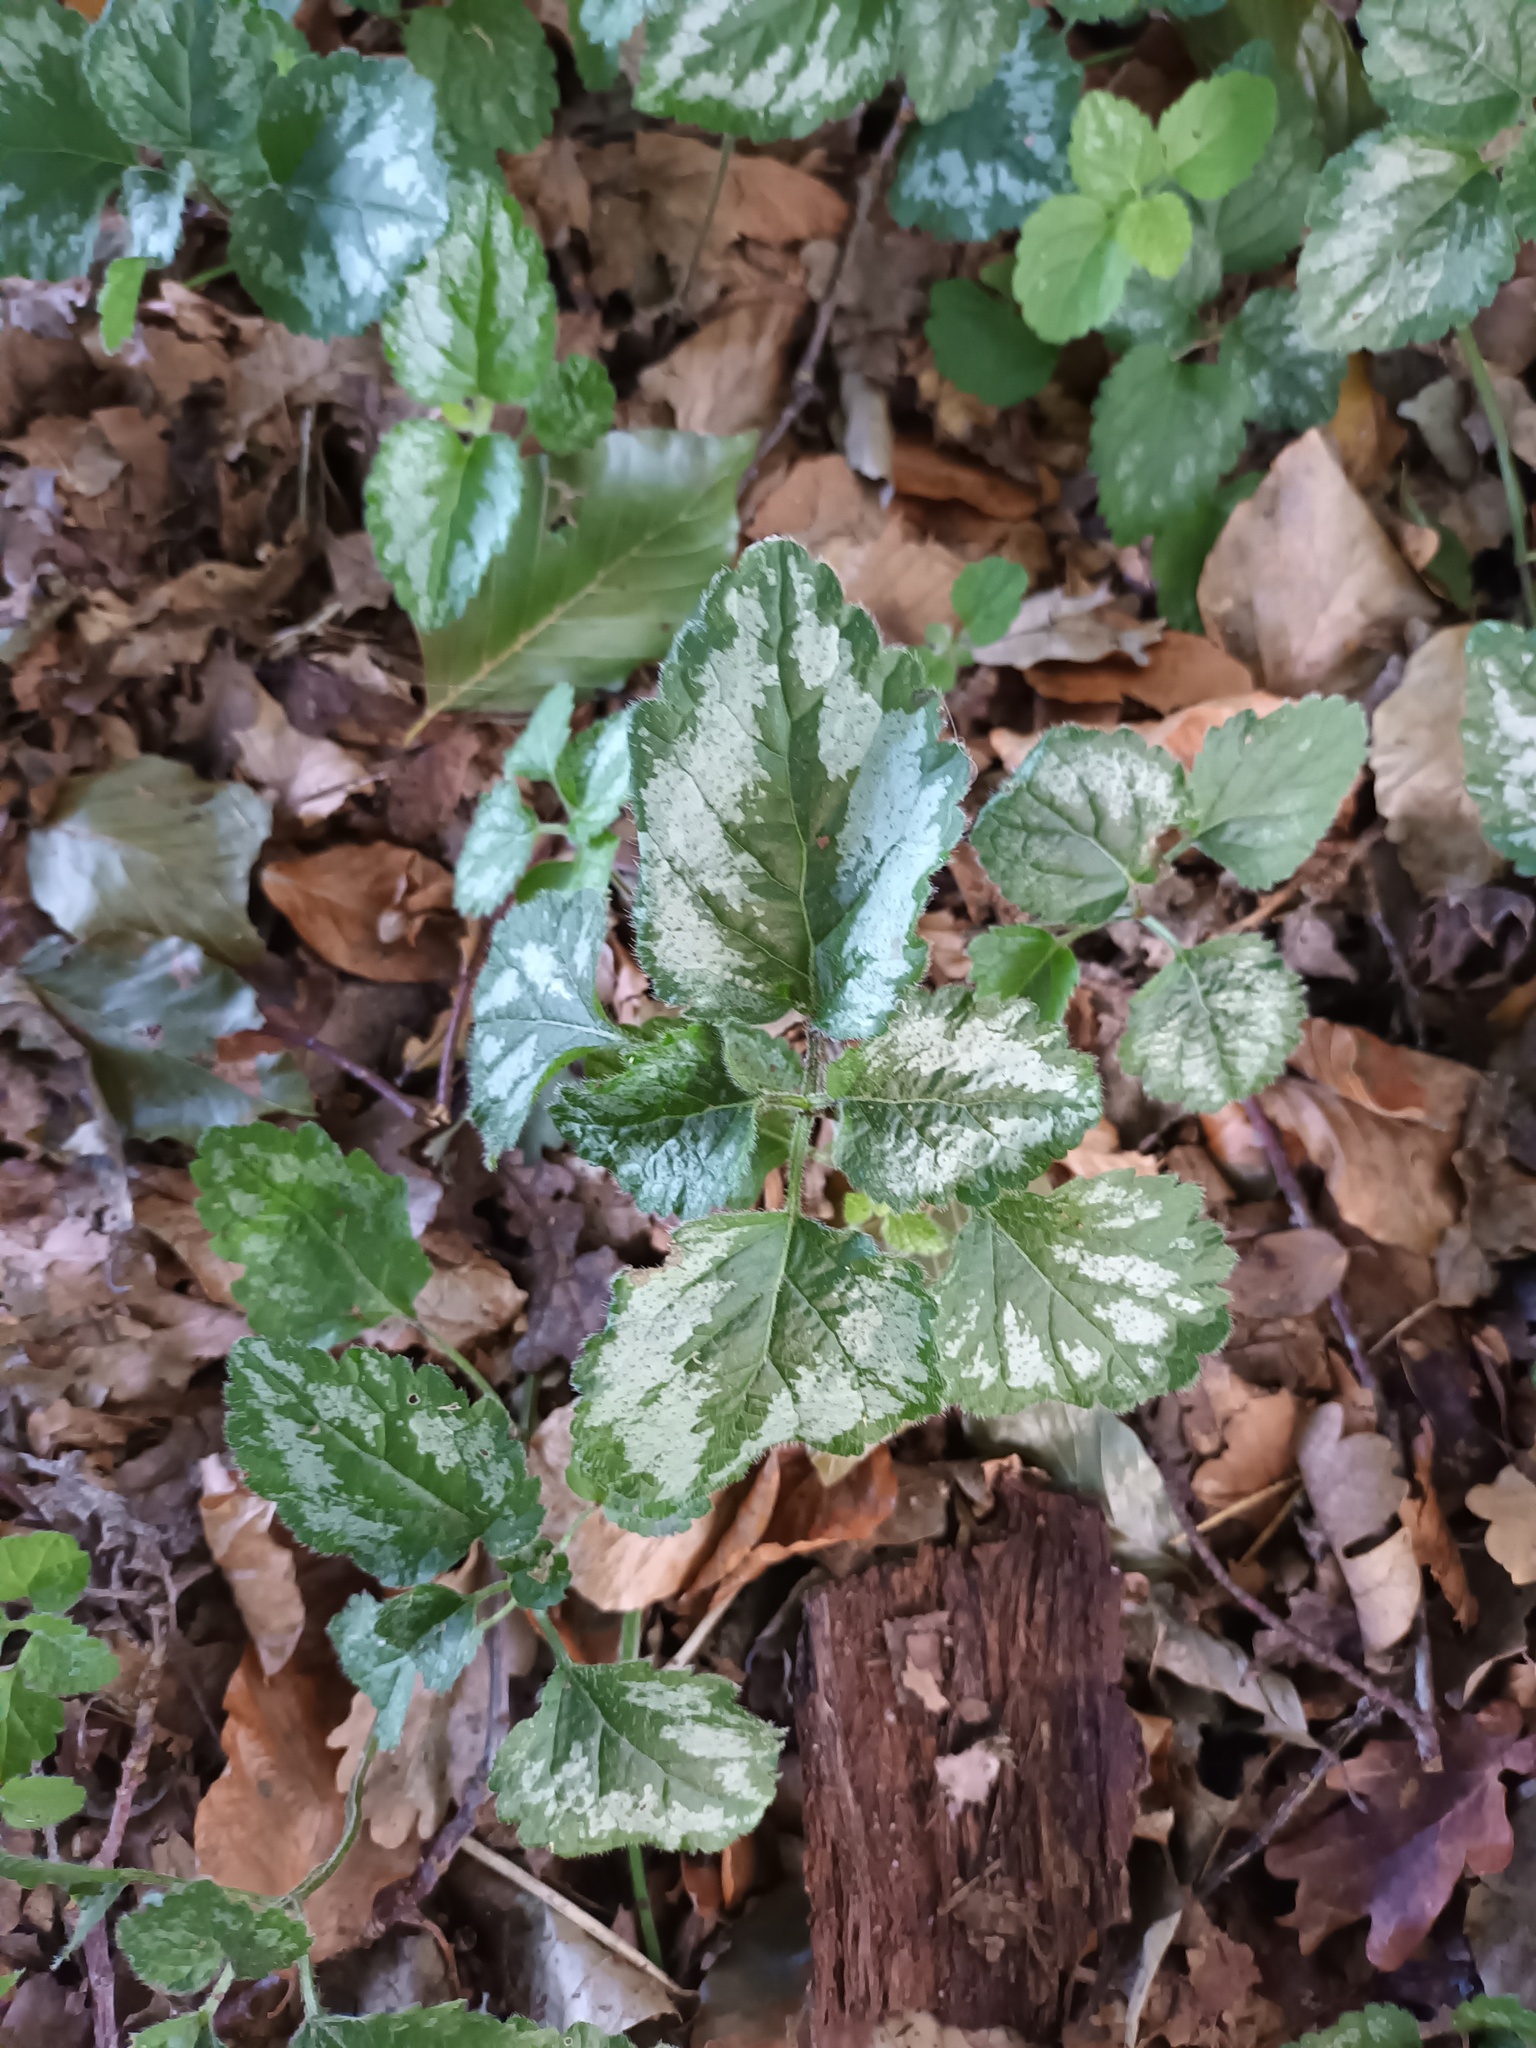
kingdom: Plantae
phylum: Tracheophyta
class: Magnoliopsida
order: Lamiales
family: Lamiaceae
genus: Lamium
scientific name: Lamium galeobdolon
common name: Yellow archangel
